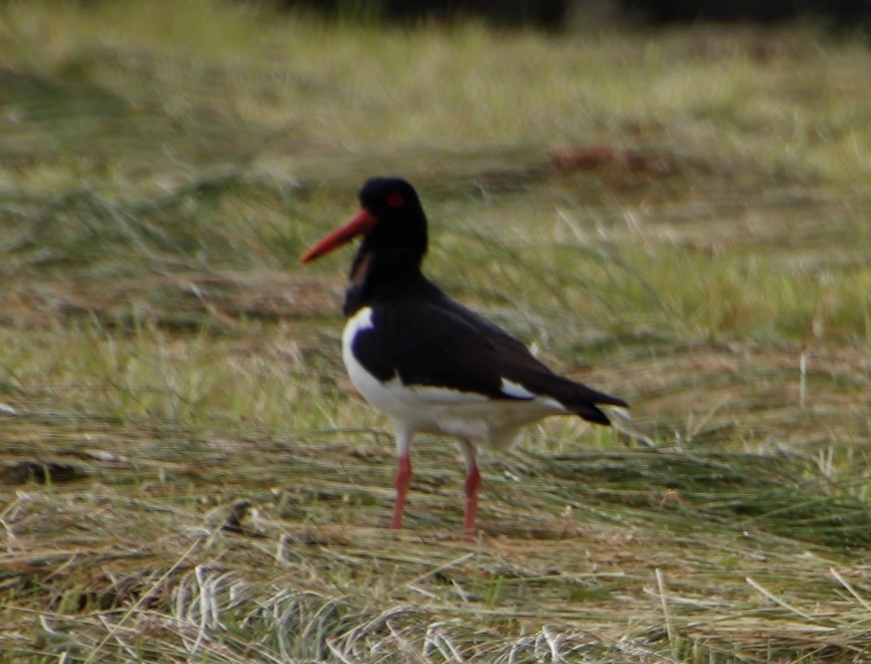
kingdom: Animalia
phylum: Chordata
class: Aves
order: Charadriiformes
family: Haematopodidae
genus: Haematopus
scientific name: Haematopus ostralegus
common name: Eurasian oystercatcher
